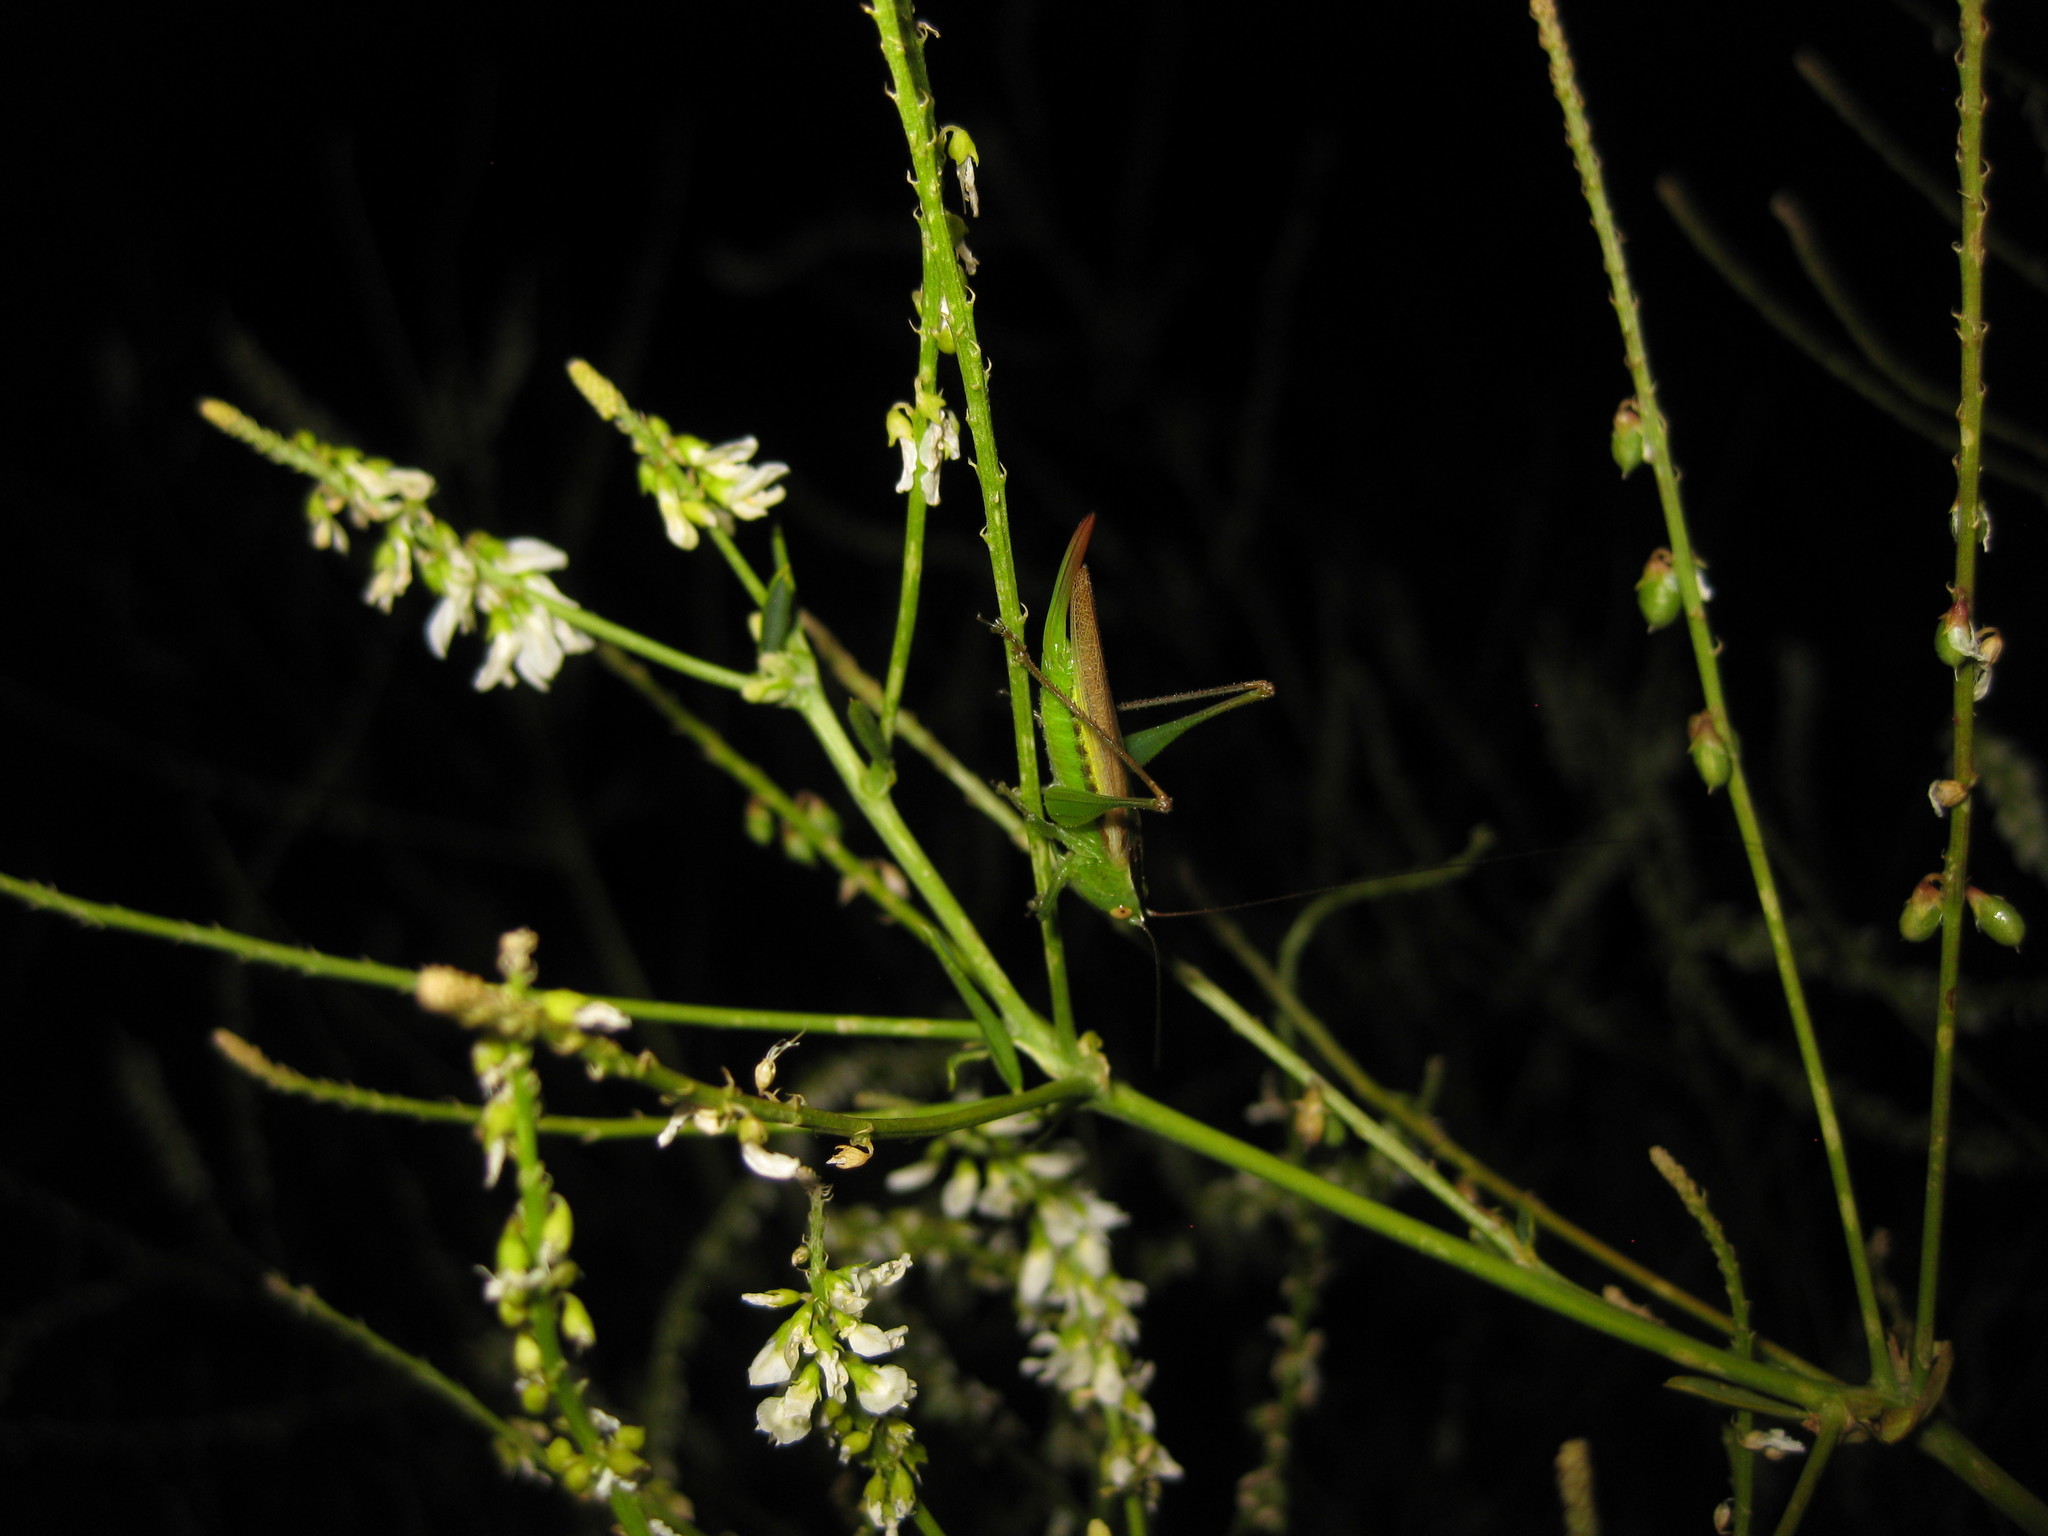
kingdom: Animalia
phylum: Arthropoda
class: Insecta
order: Orthoptera
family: Tettigoniidae
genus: Conocephalus
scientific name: Conocephalus fasciatus
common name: Slender meadow katydid
